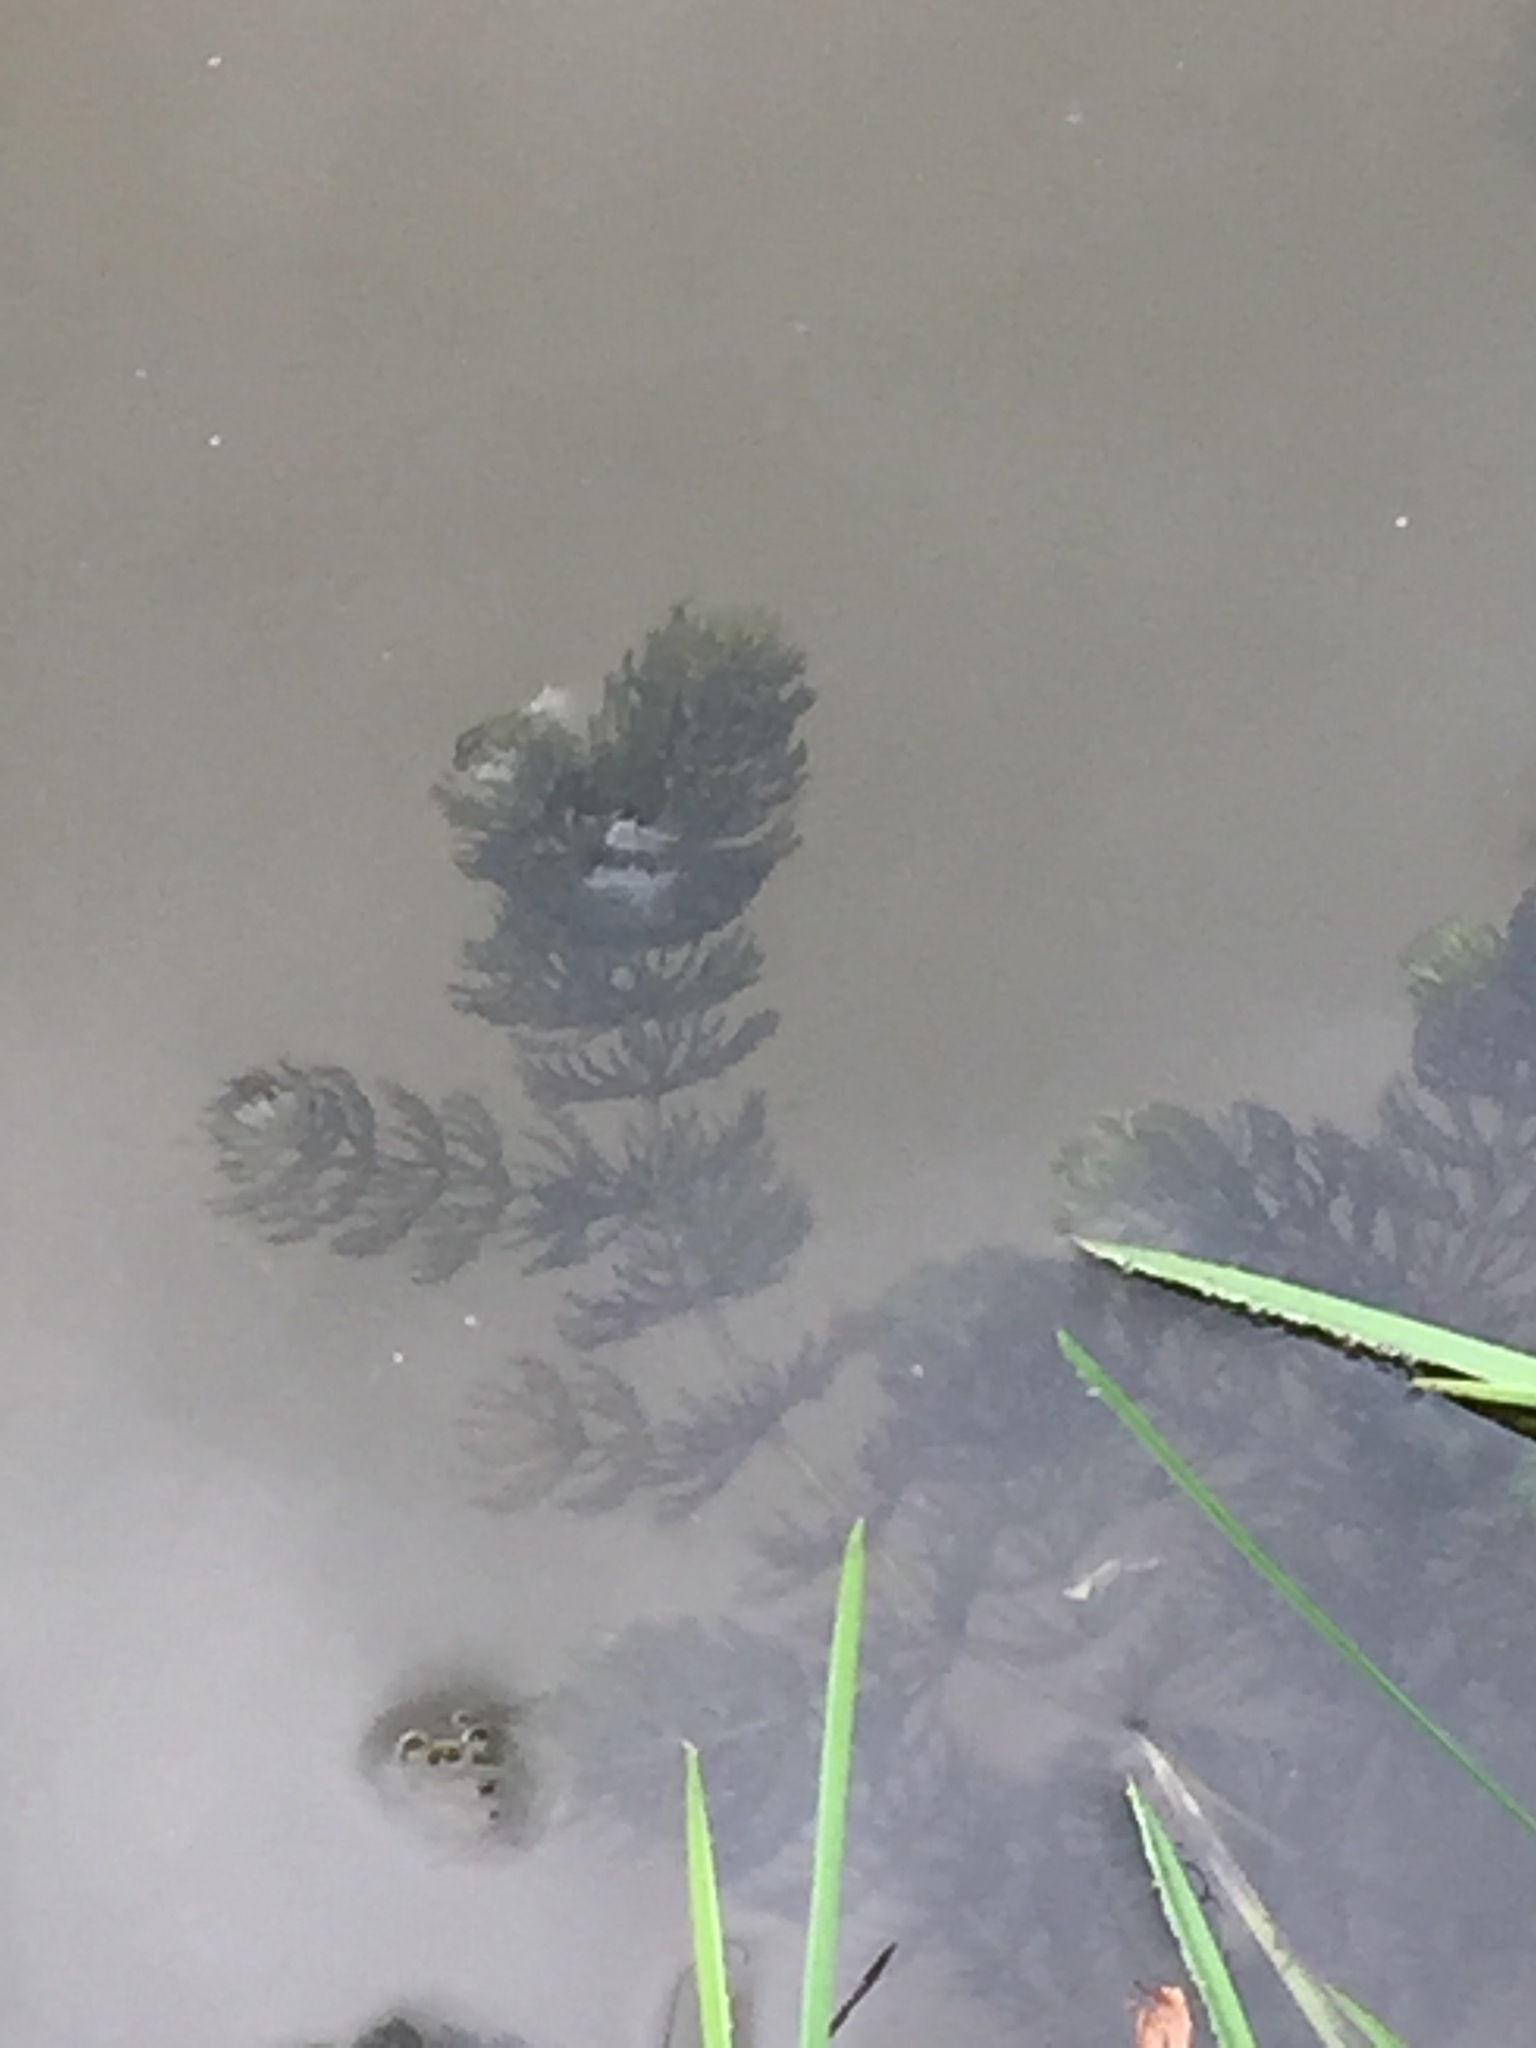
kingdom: Plantae
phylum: Tracheophyta
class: Magnoliopsida
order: Ceratophyllales
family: Ceratophyllaceae
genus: Ceratophyllum
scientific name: Ceratophyllum demersum
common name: Rigid hornwort
